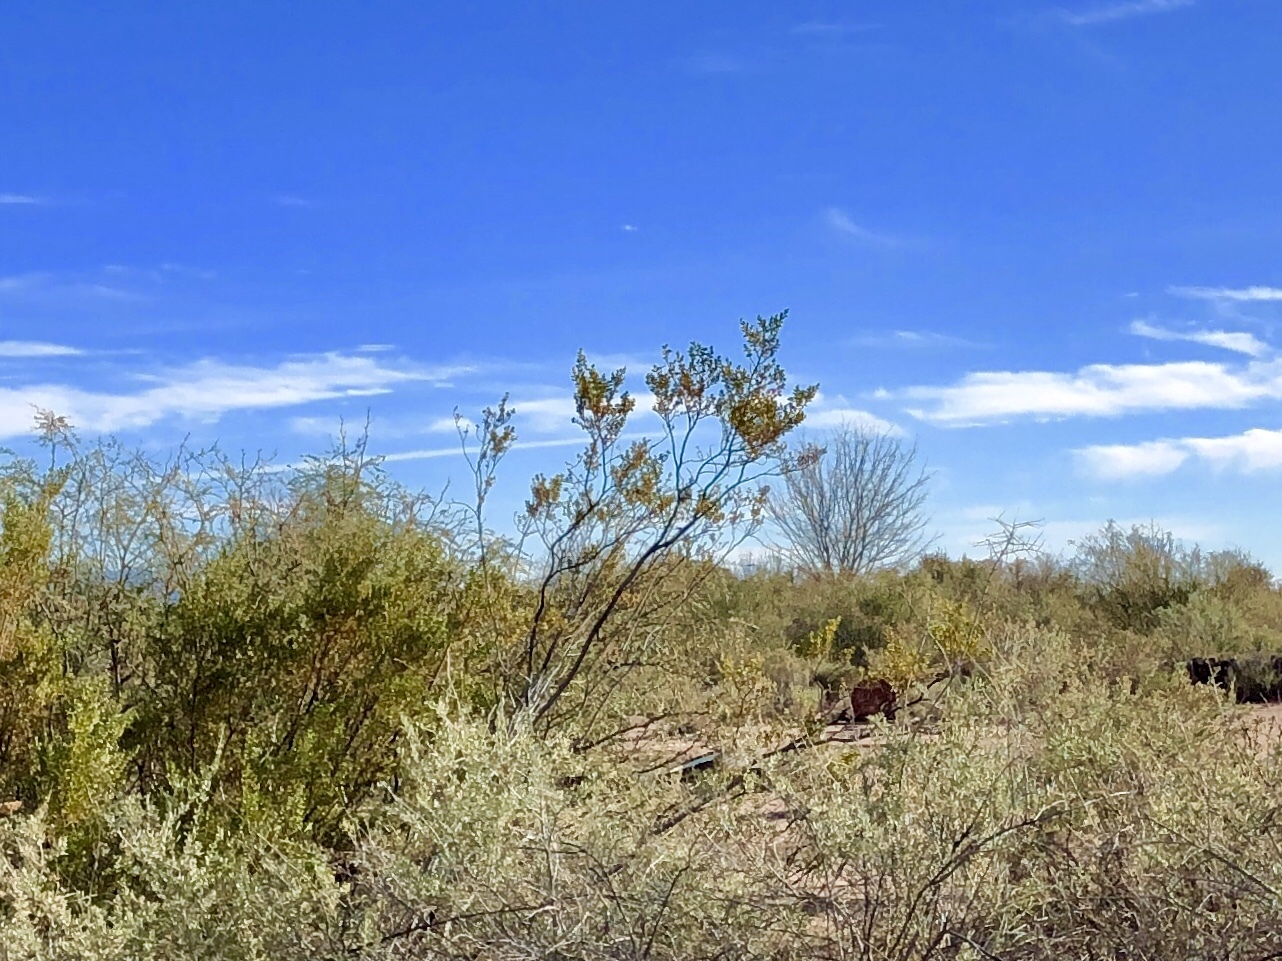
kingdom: Plantae
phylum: Tracheophyta
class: Magnoliopsida
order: Zygophyllales
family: Zygophyllaceae
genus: Larrea
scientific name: Larrea tridentata
